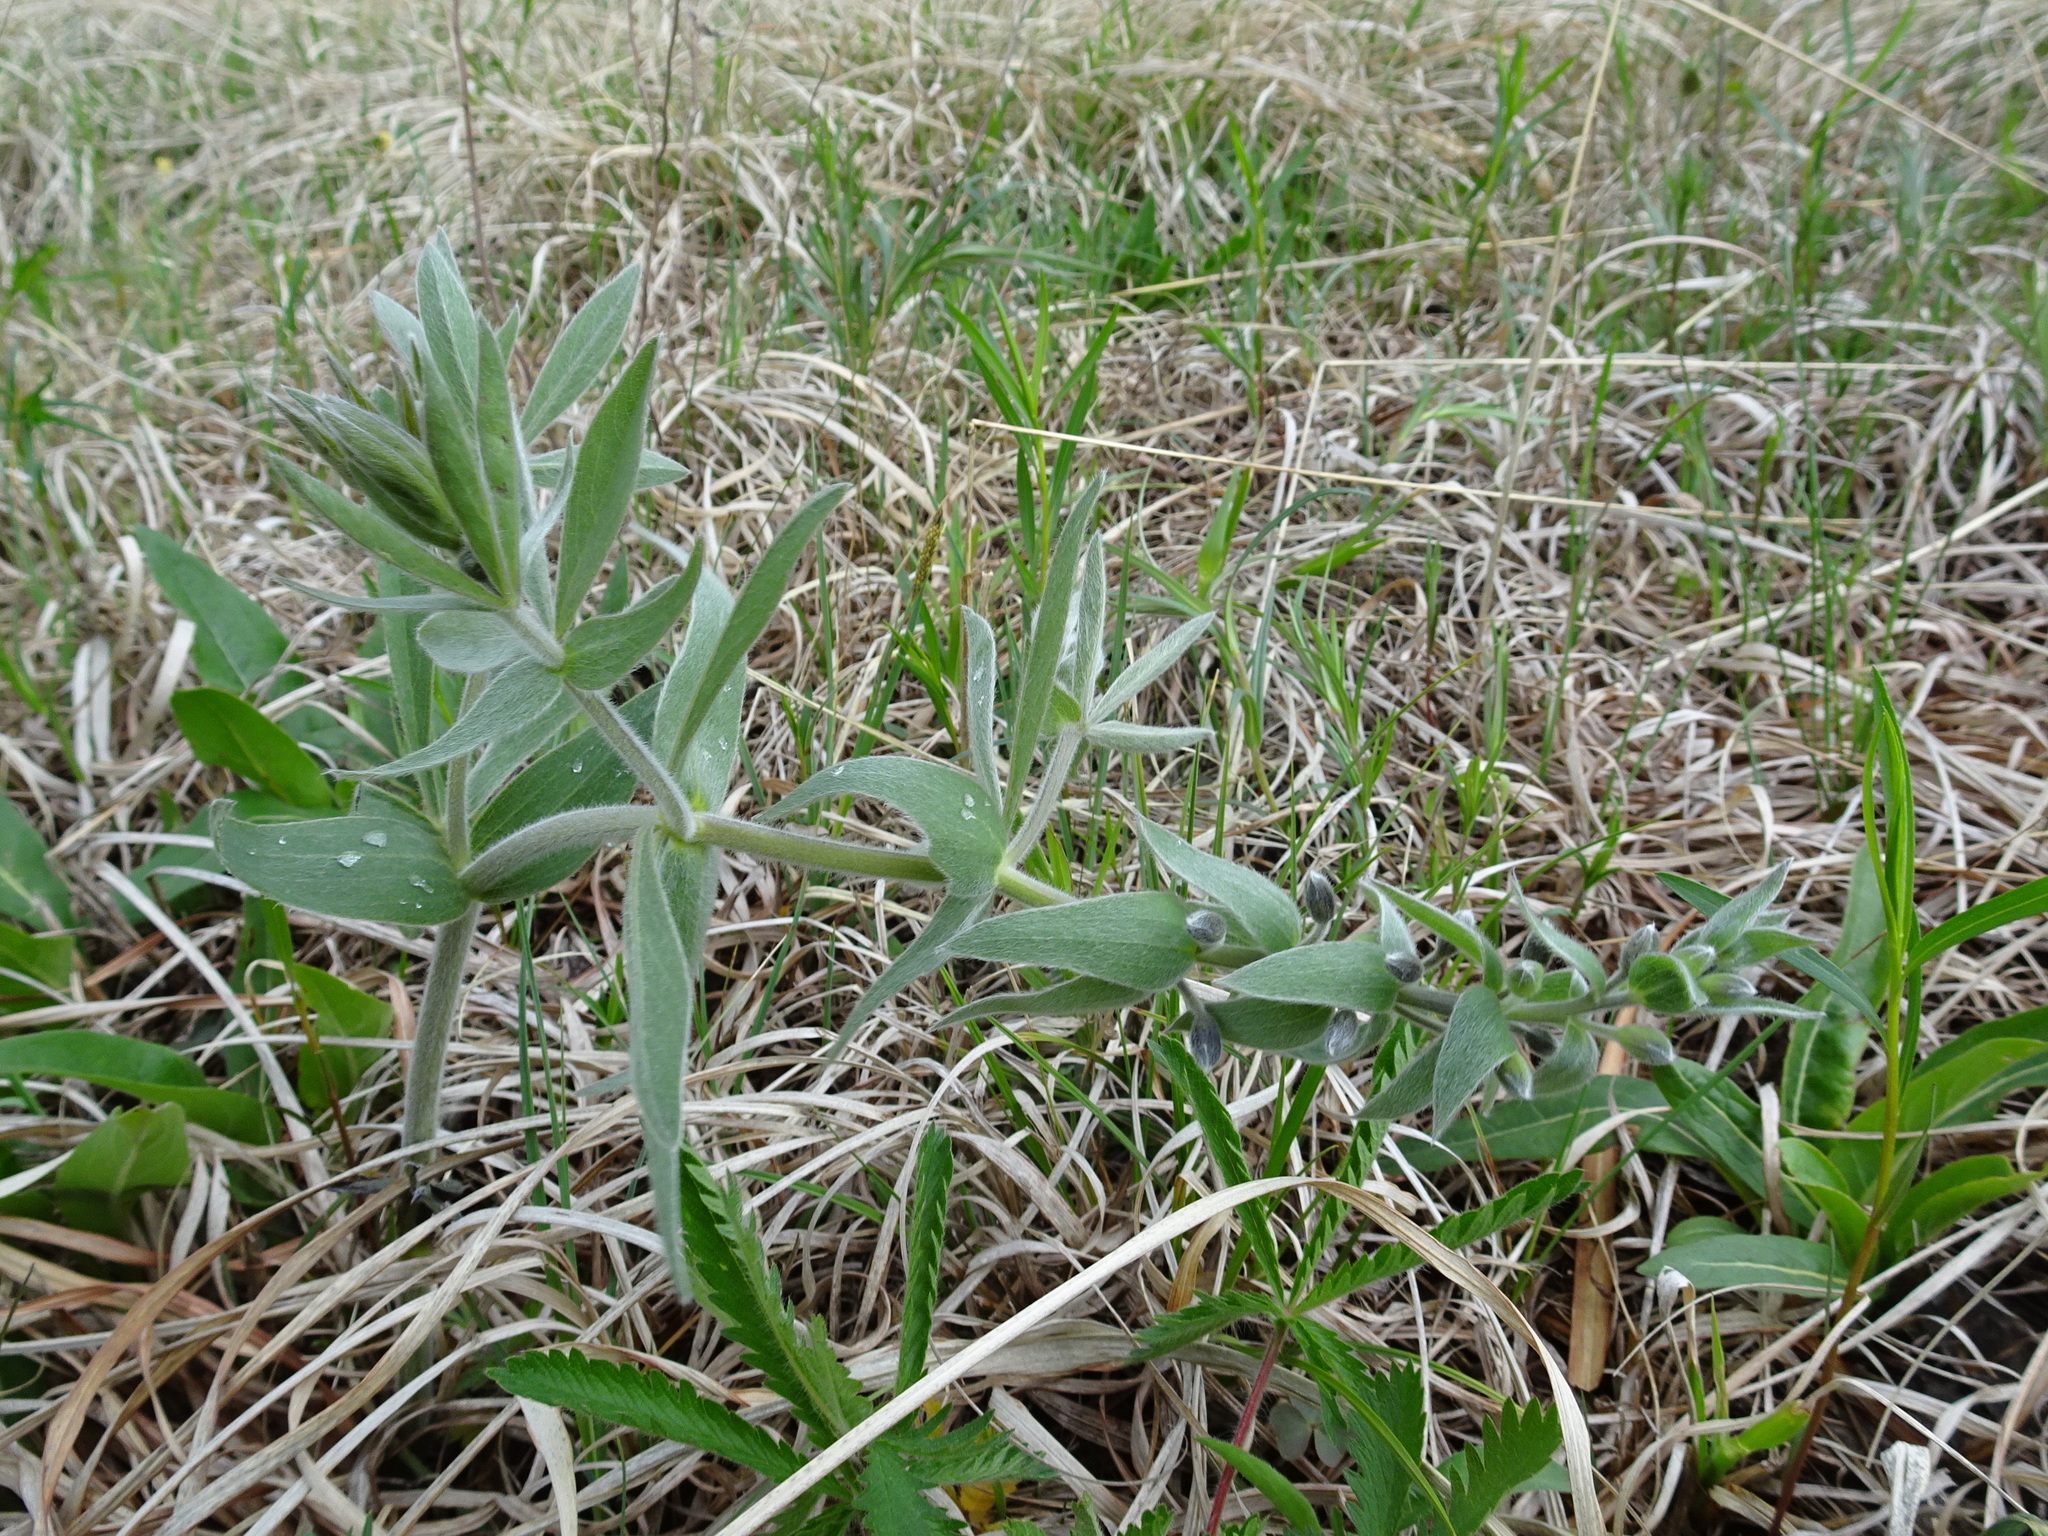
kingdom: Plantae
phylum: Tracheophyta
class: Magnoliopsida
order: Fabales
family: Fabaceae
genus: Baptisia
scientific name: Baptisia bracteata
